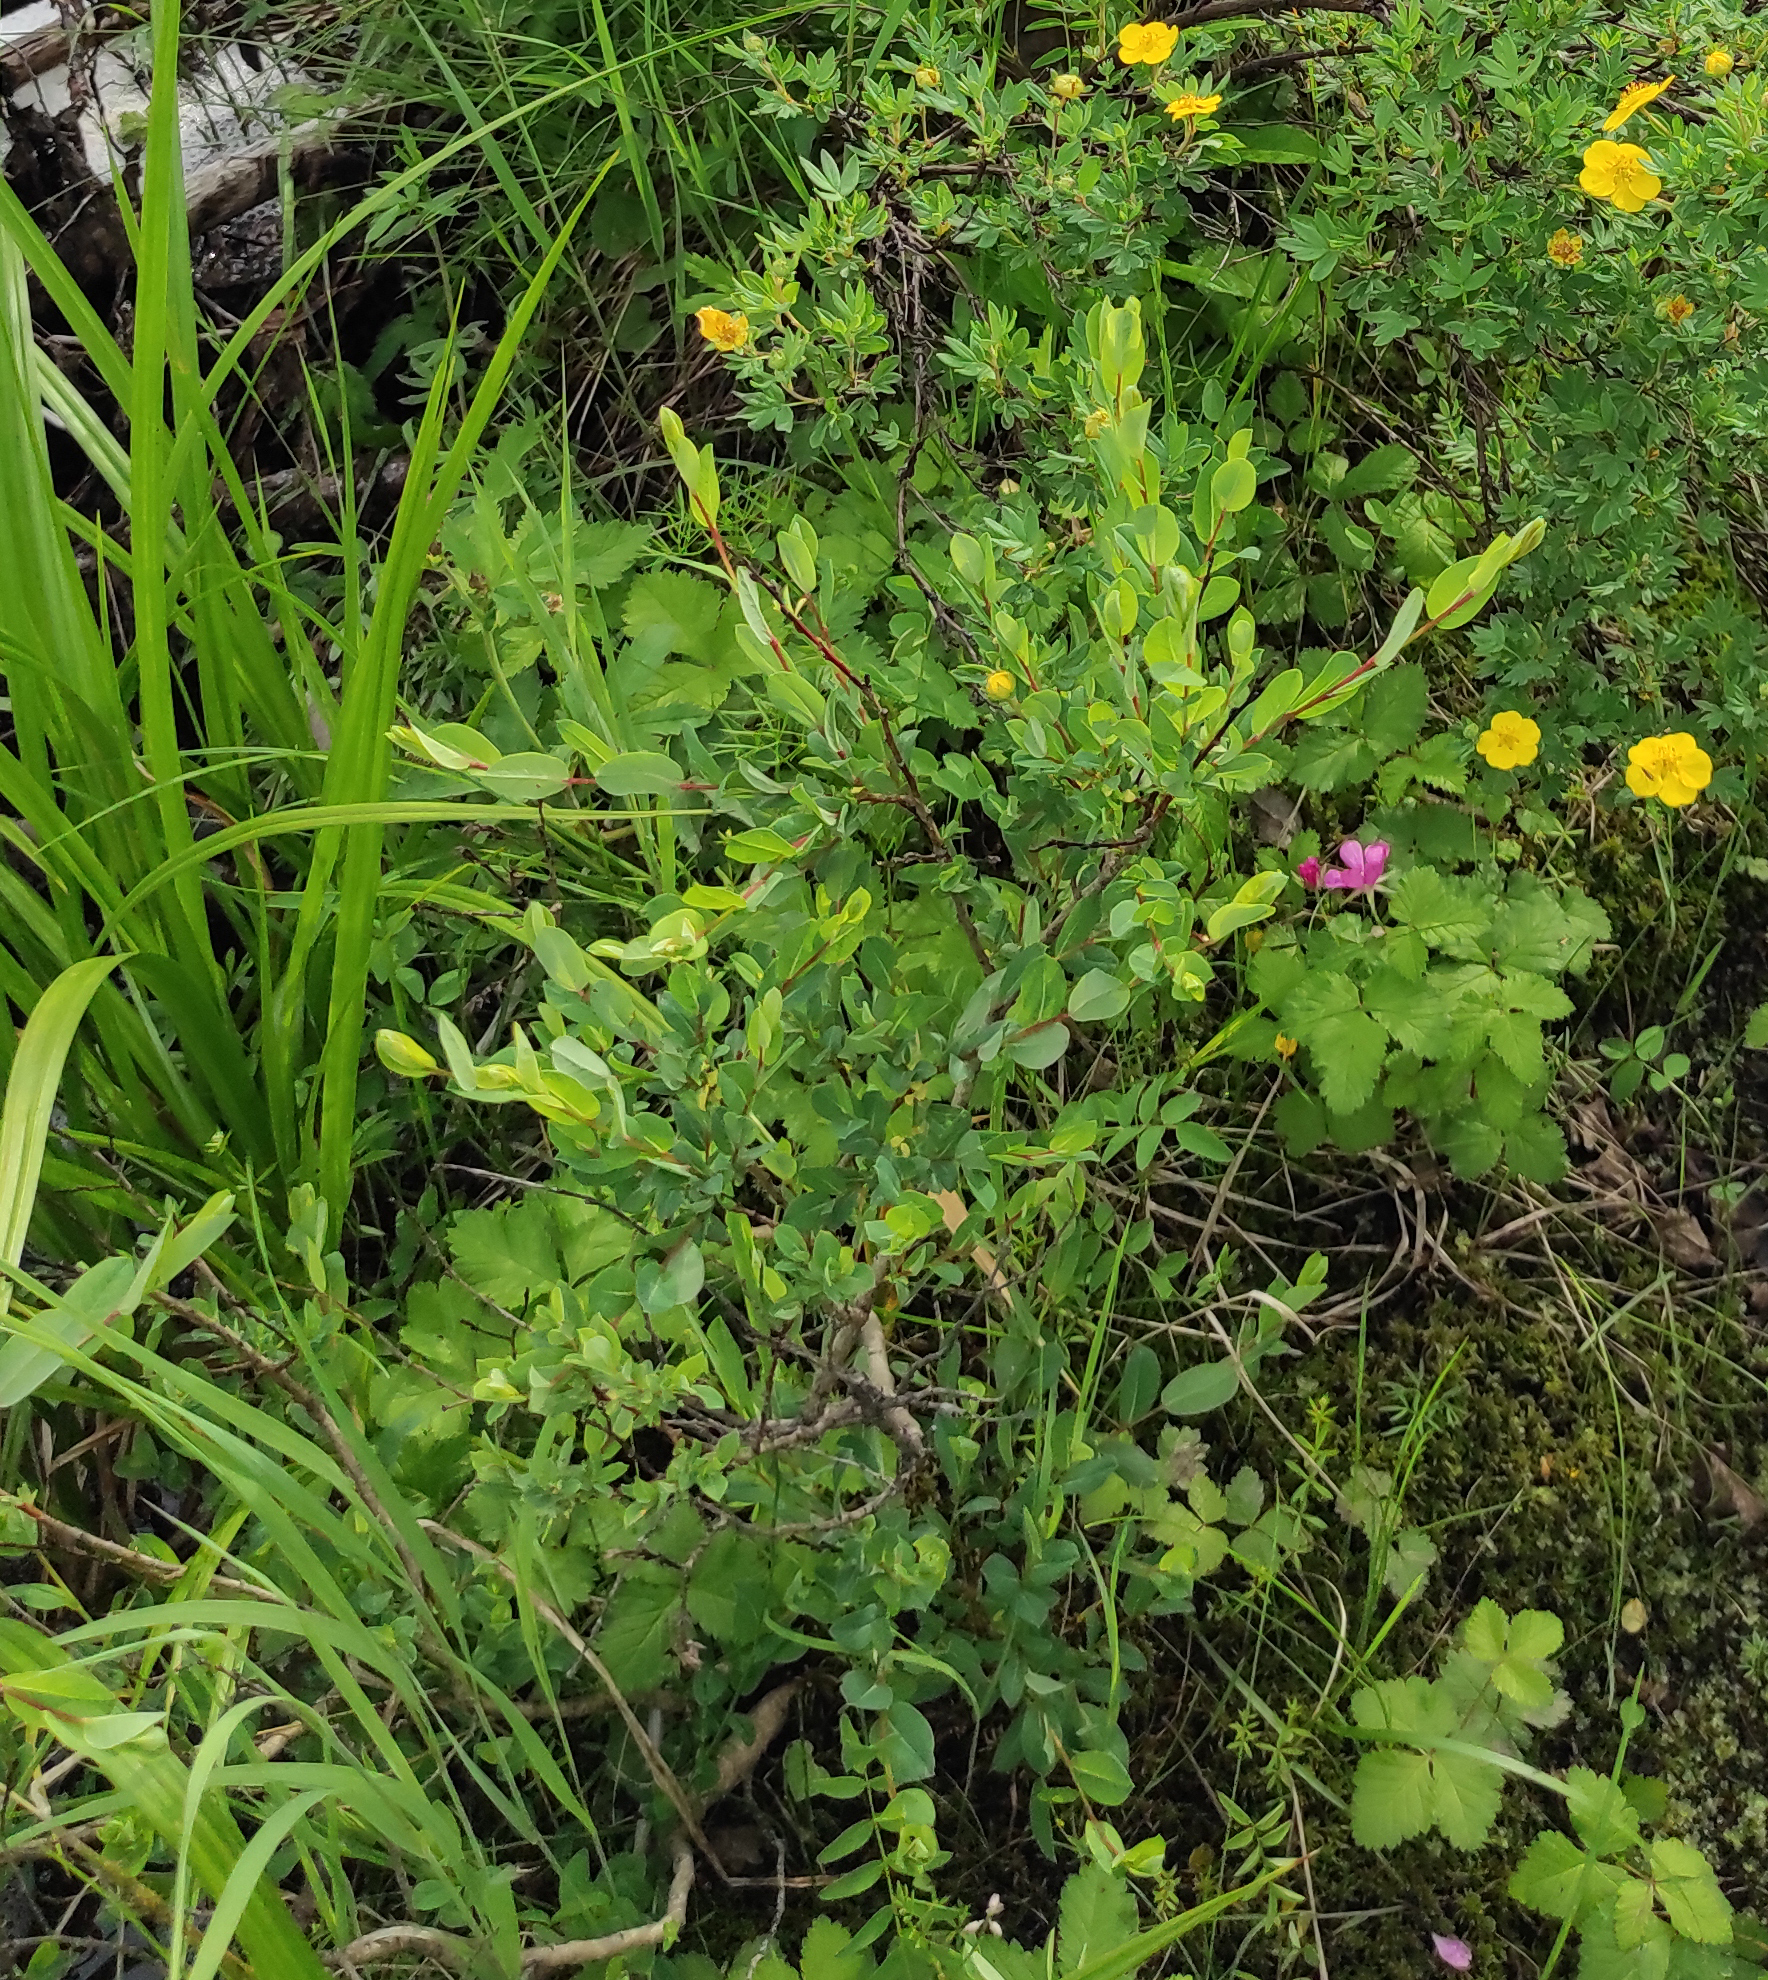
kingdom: Plantae
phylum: Tracheophyta
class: Magnoliopsida
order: Rosales
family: Rosaceae
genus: Rubus
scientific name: Rubus arcticus
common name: Arctic bramble
